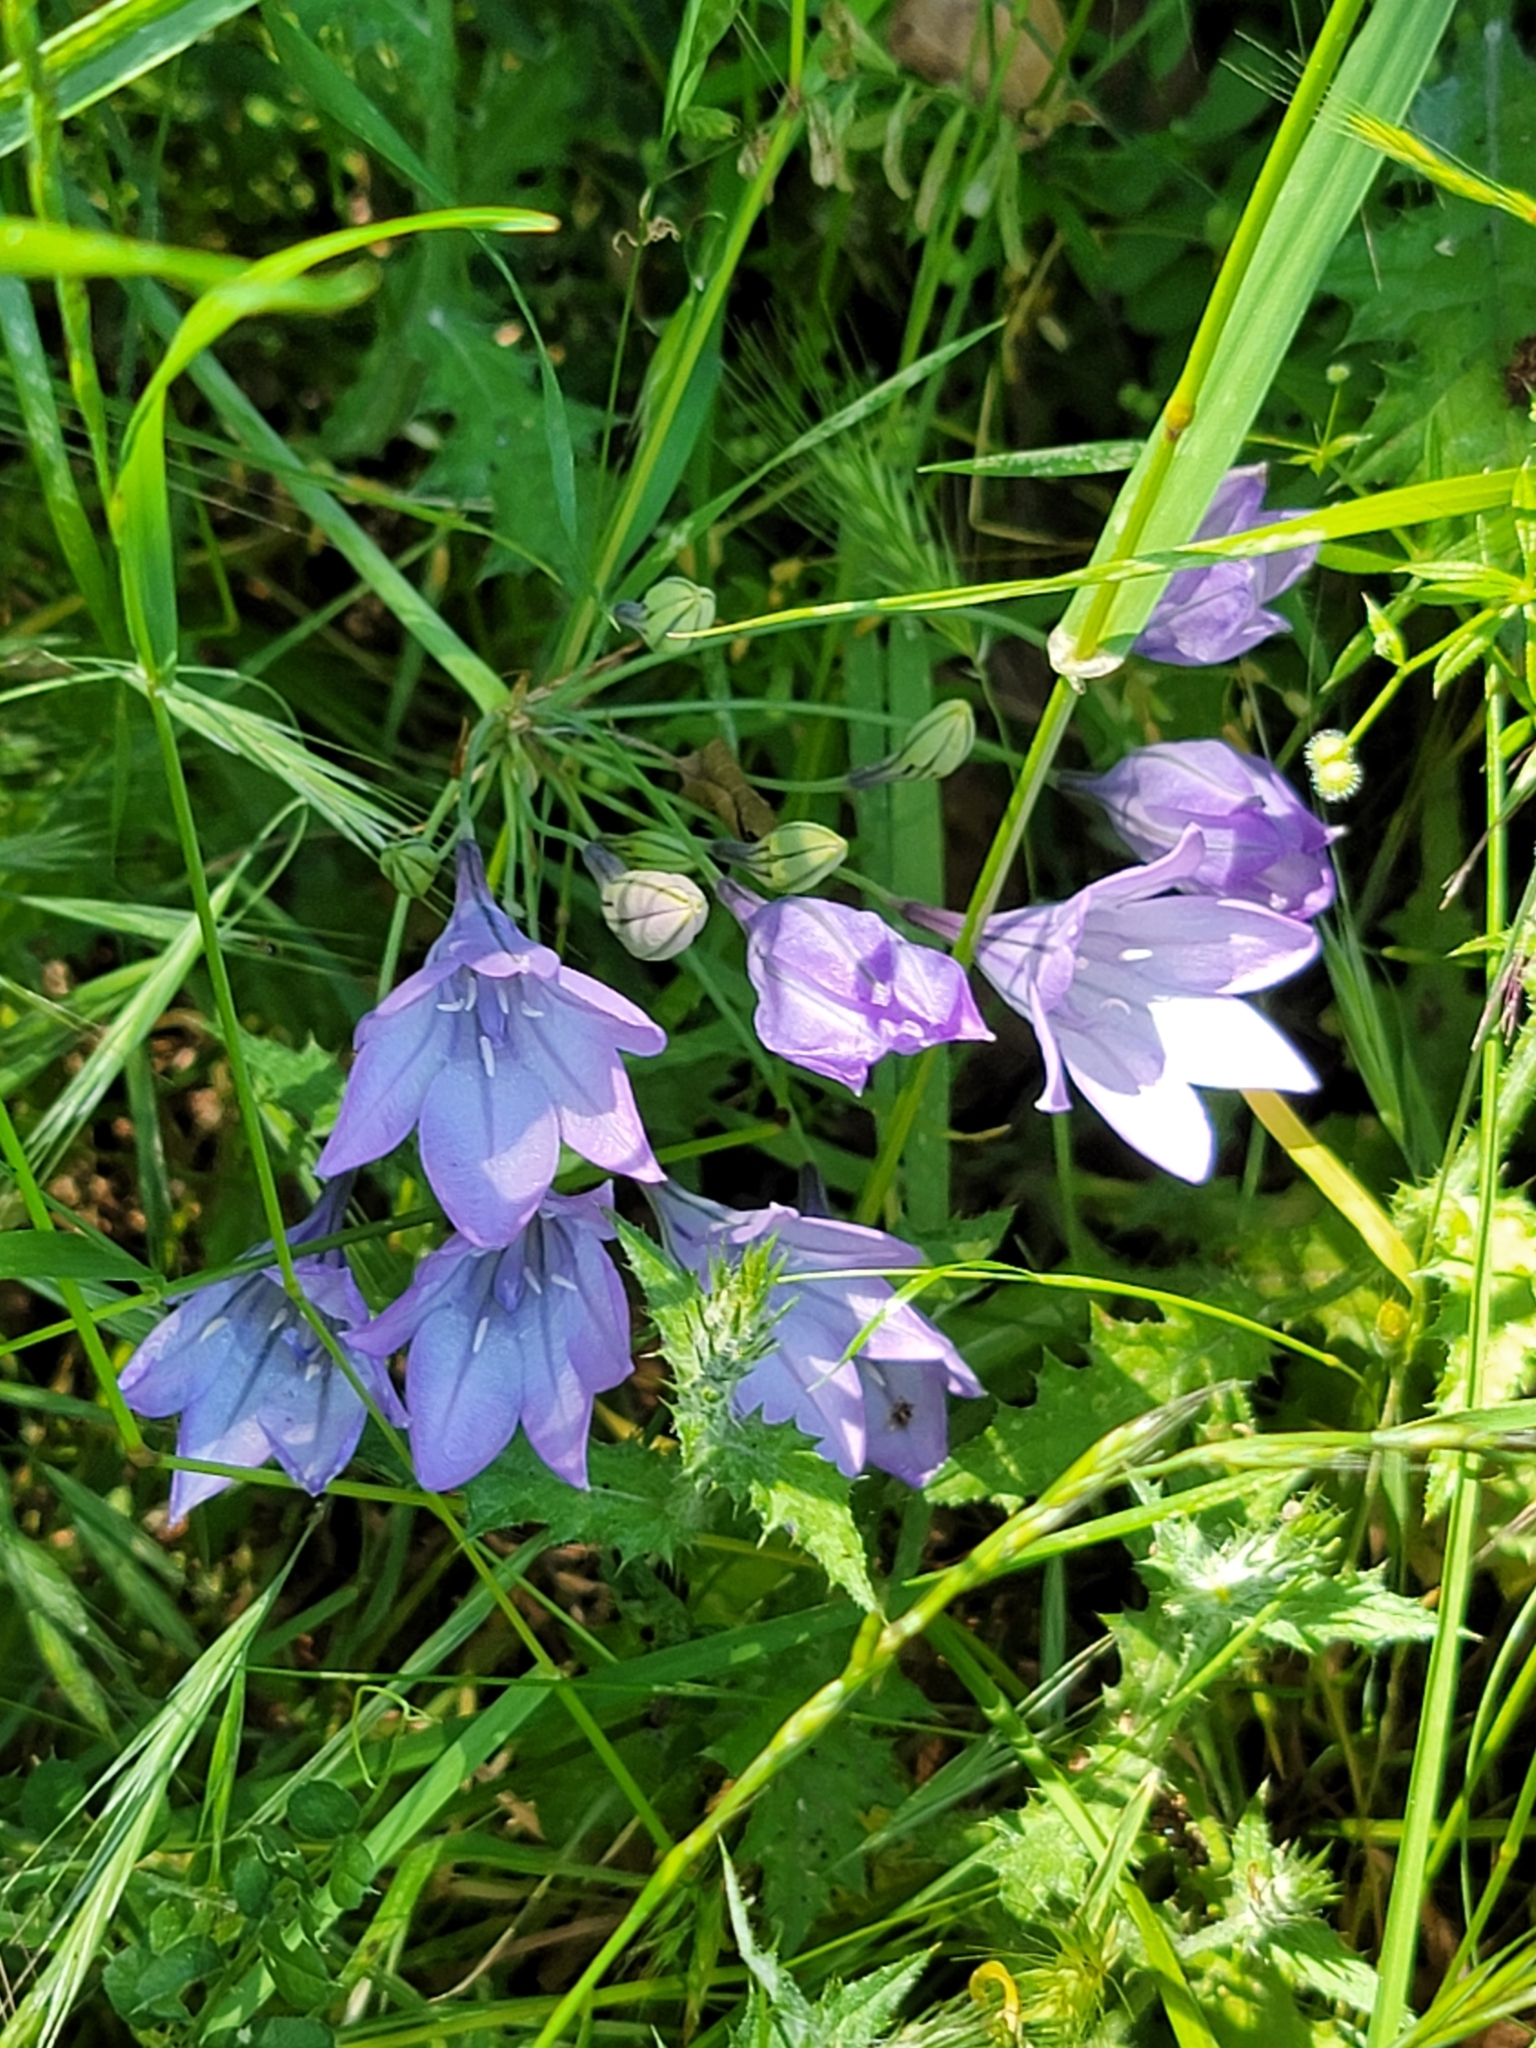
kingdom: Plantae
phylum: Tracheophyta
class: Liliopsida
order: Asparagales
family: Asparagaceae
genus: Triteleia
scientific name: Triteleia laxa
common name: Triplet-lily
